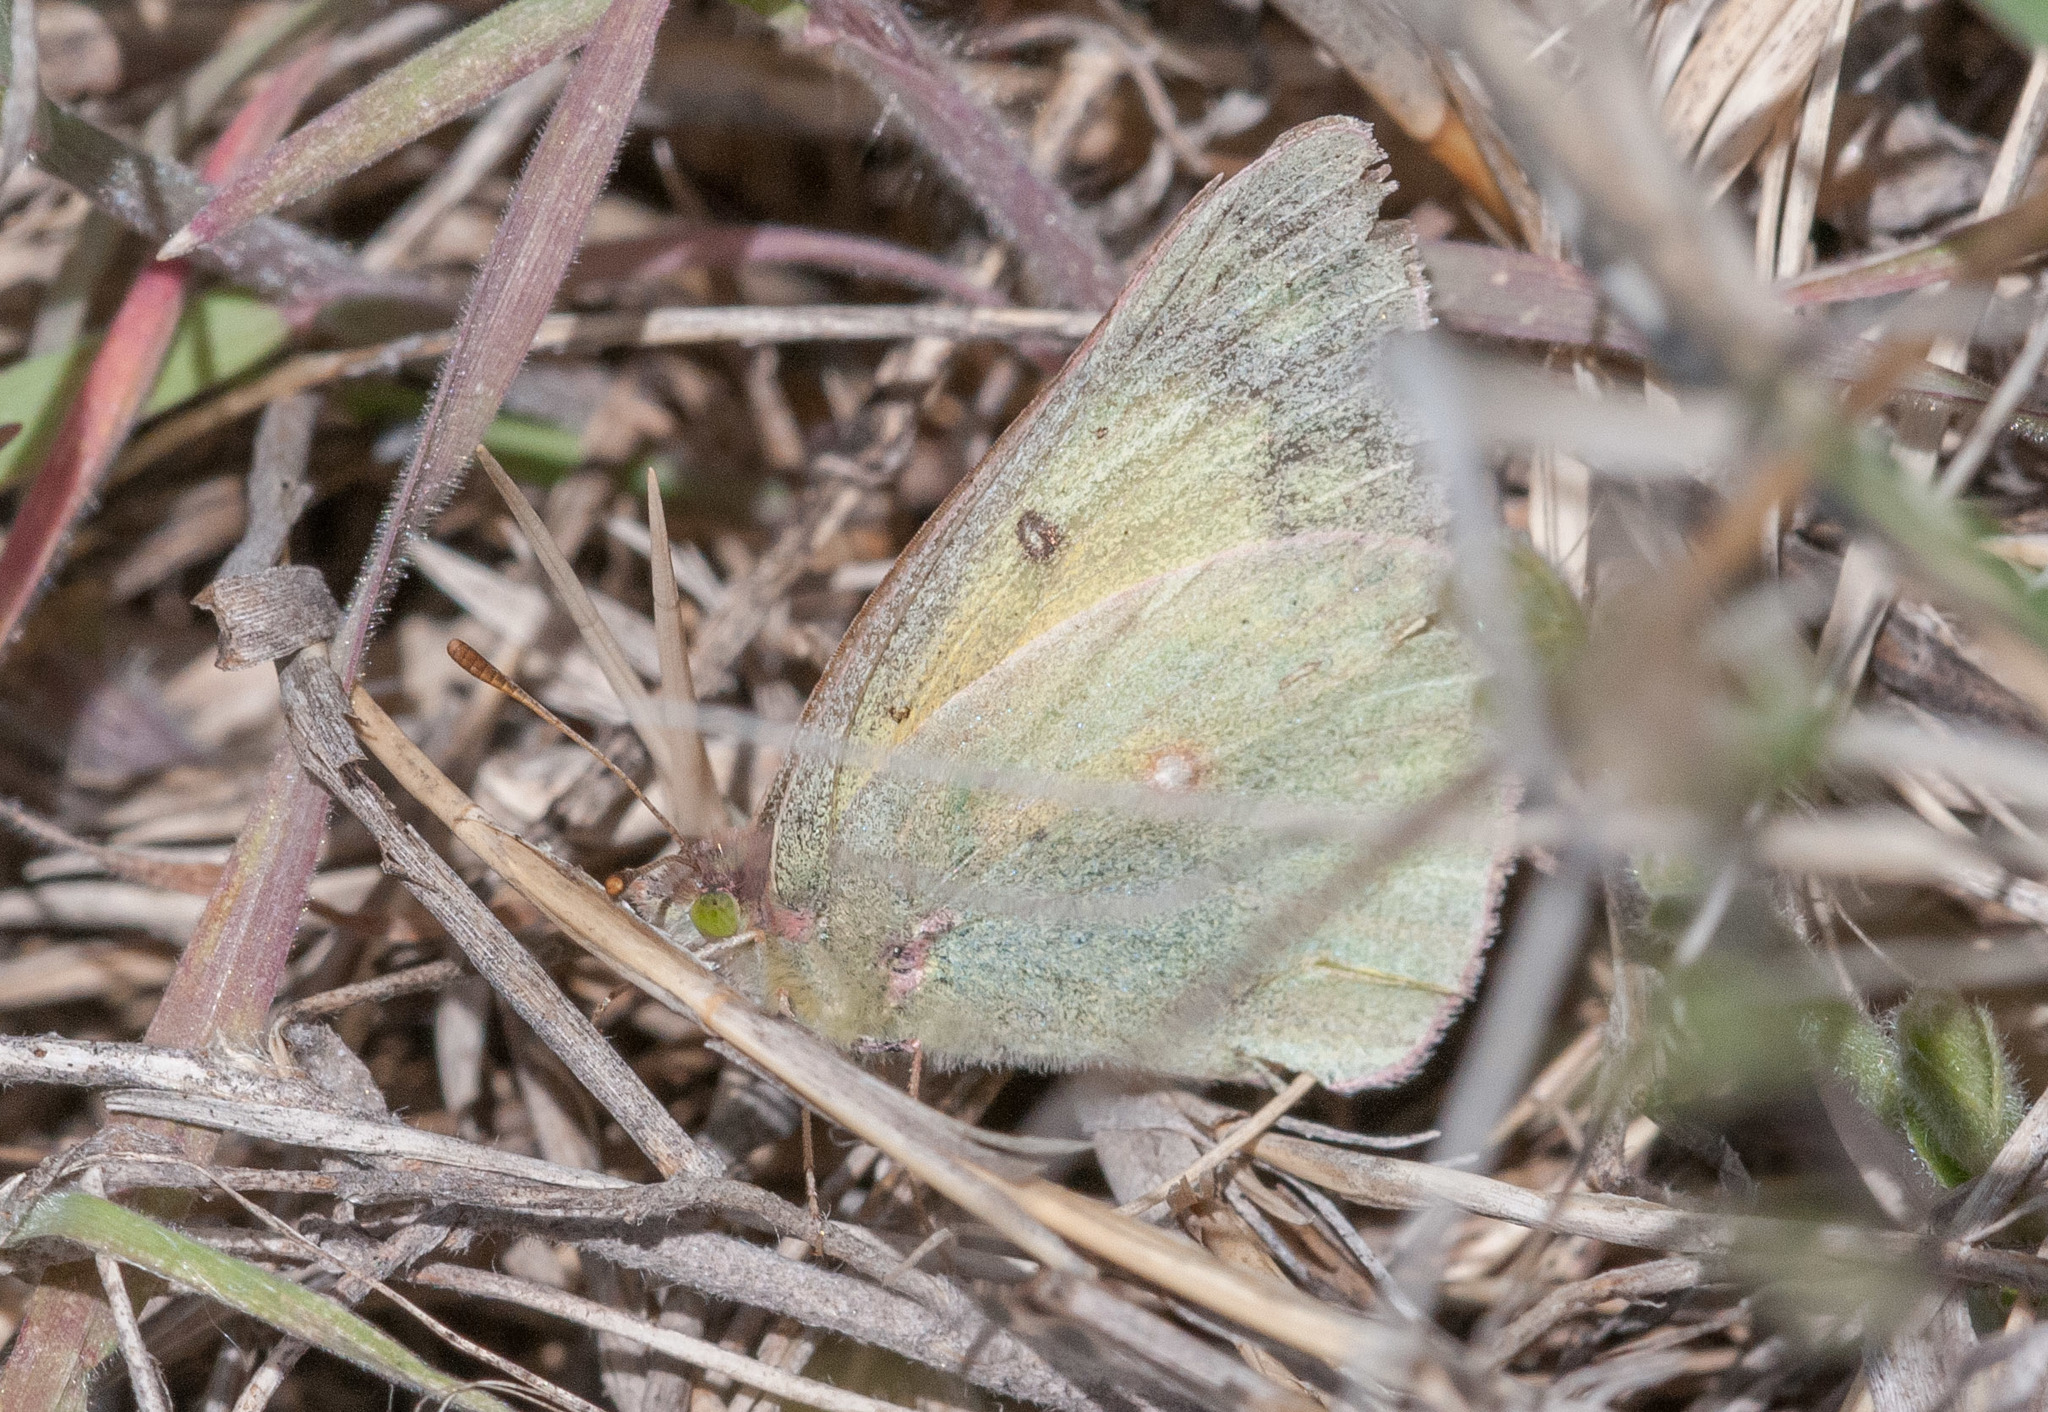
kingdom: Animalia
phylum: Arthropoda
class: Insecta
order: Lepidoptera
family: Pieridae
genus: Colias
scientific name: Colias philodice
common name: Clouded sulphur
